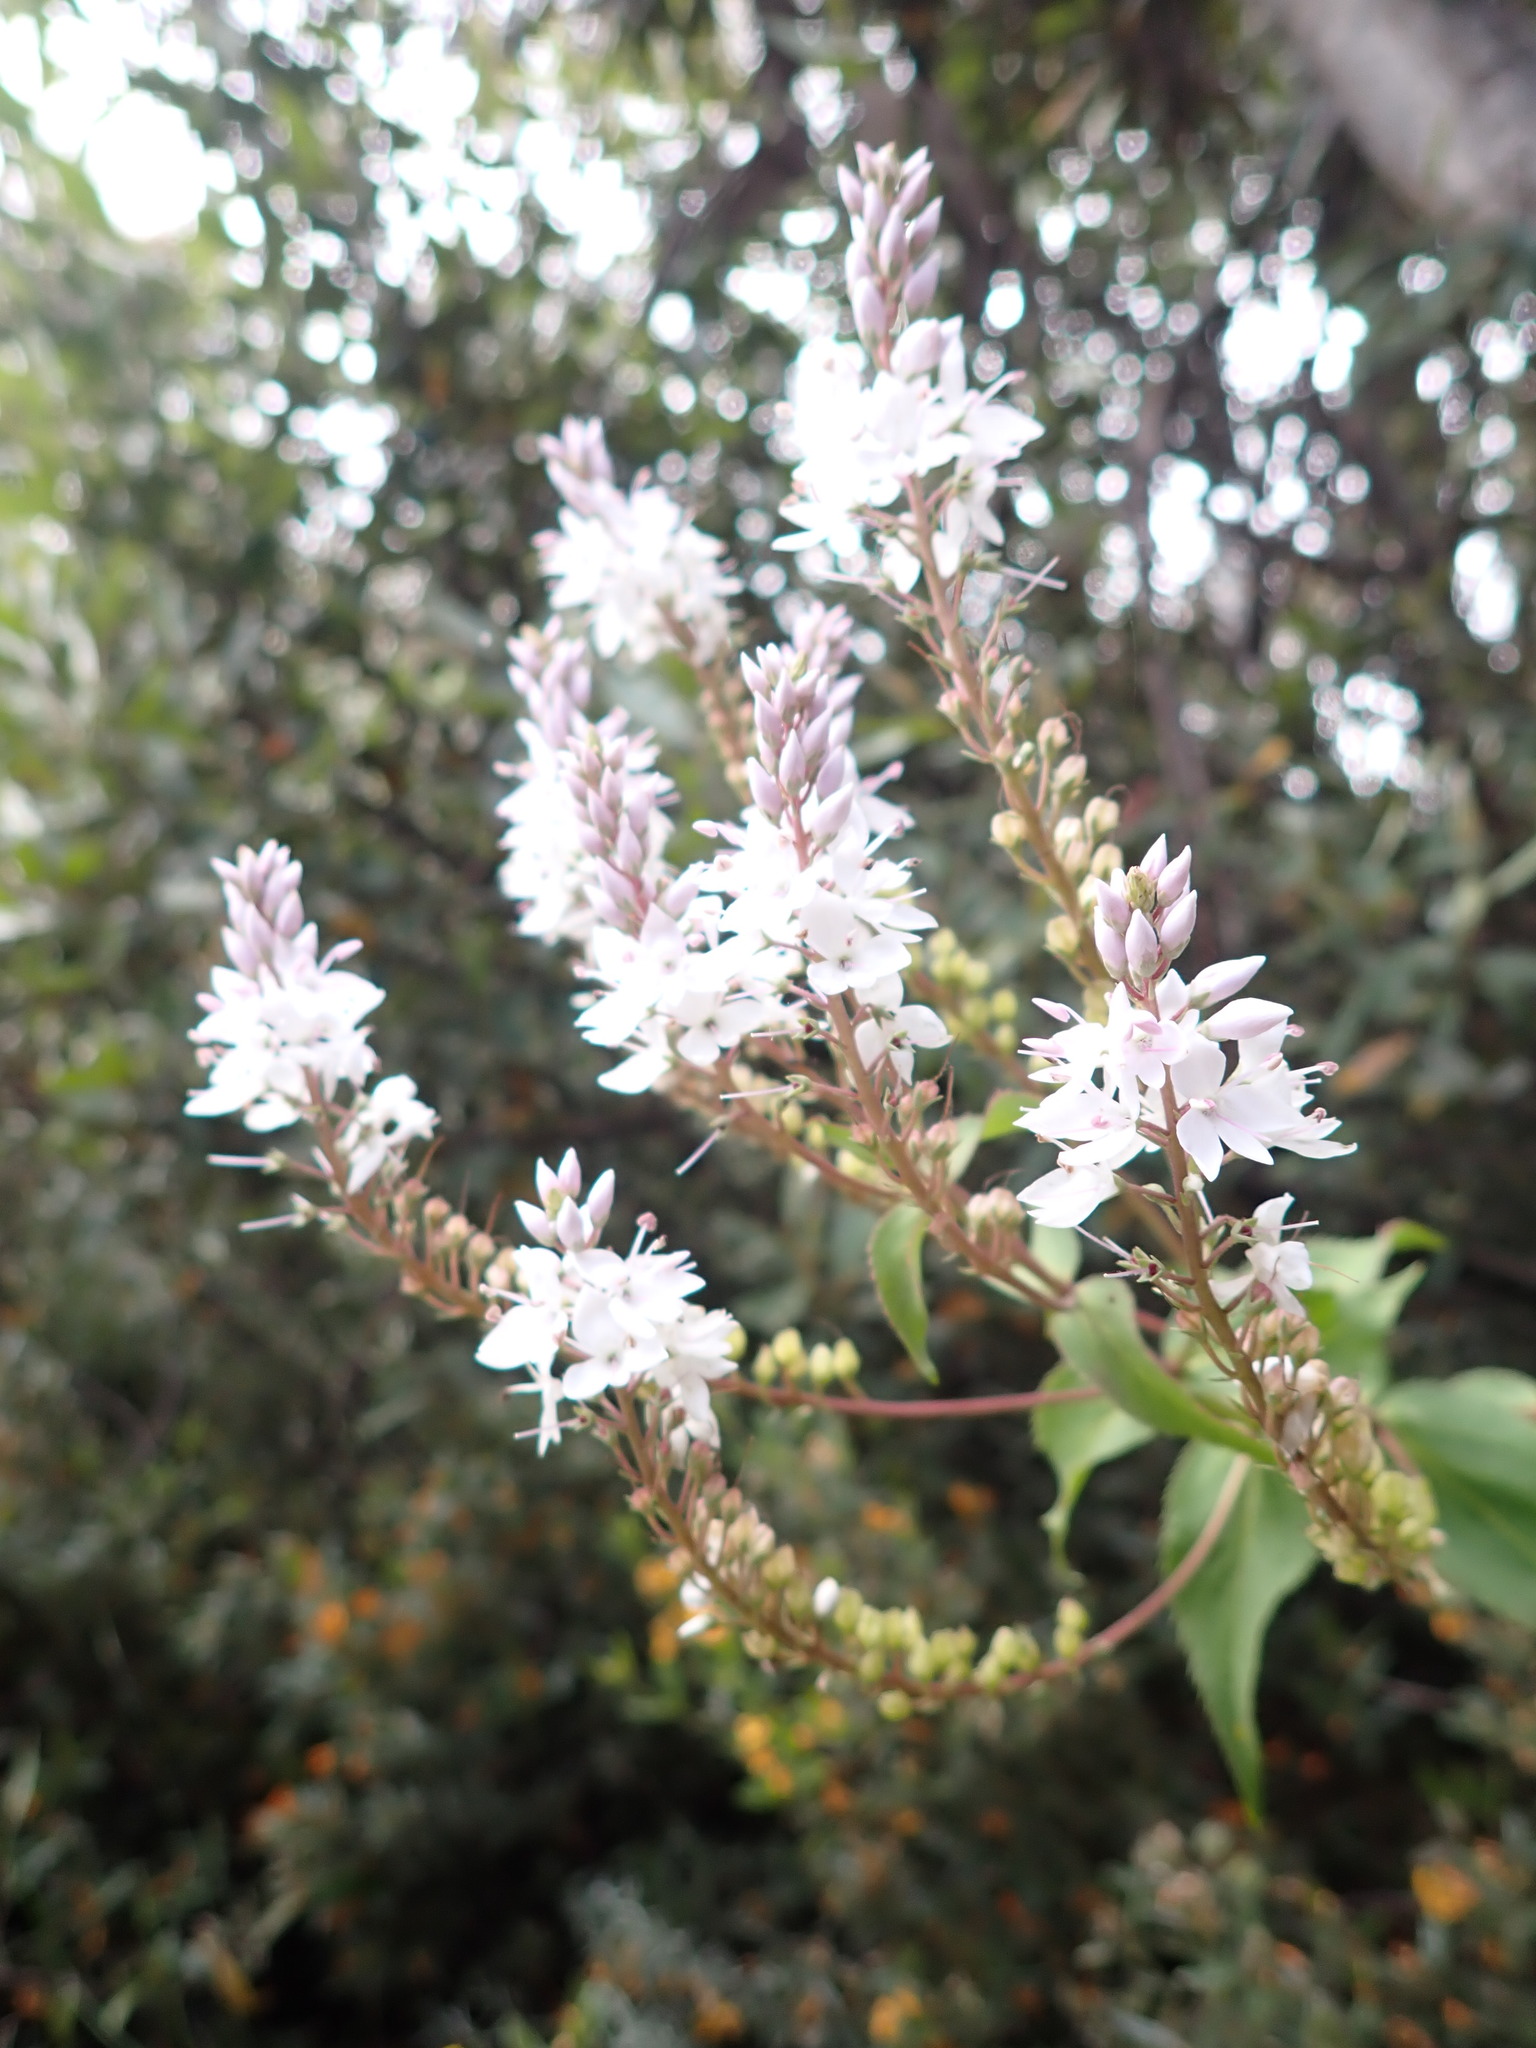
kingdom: Plantae
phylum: Tracheophyta
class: Magnoliopsida
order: Lamiales
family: Plantaginaceae
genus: Veronica
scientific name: Veronica derwentiana
